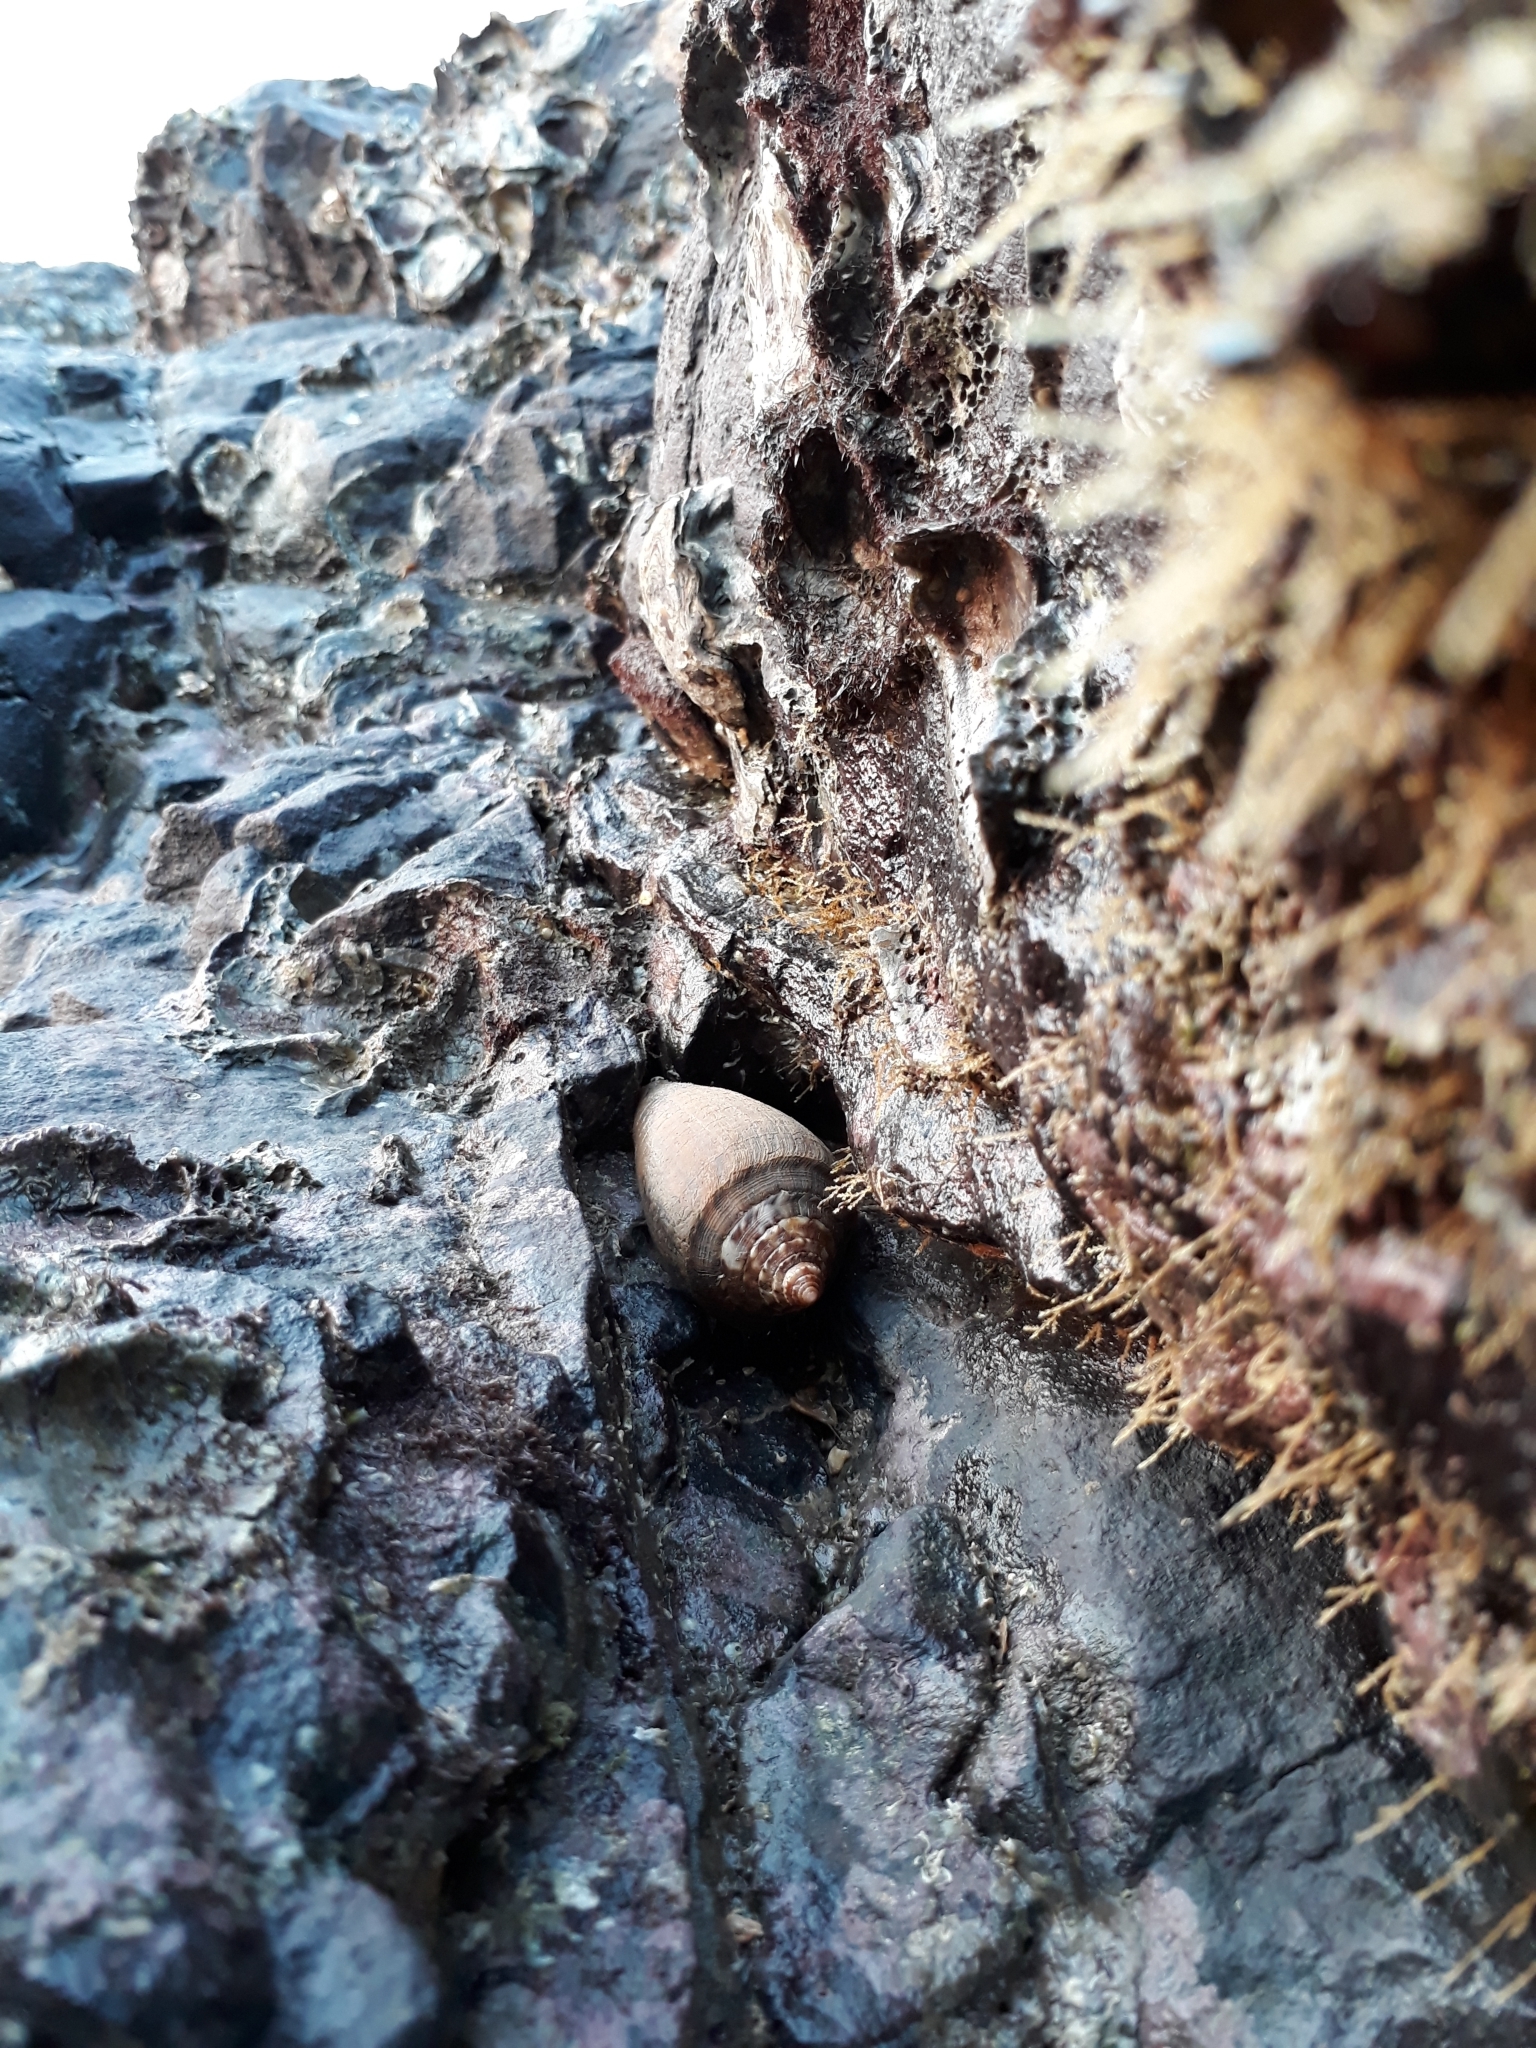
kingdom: Animalia
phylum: Mollusca
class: Gastropoda
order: Neogastropoda
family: Conidae
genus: Conus
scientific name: Conus achatinus
